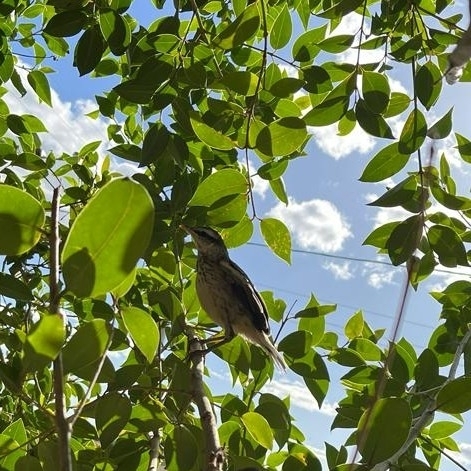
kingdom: Animalia
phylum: Chordata
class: Aves
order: Passeriformes
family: Mimidae
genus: Mimus
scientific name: Mimus saturninus
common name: Chalk-browed mockingbird
